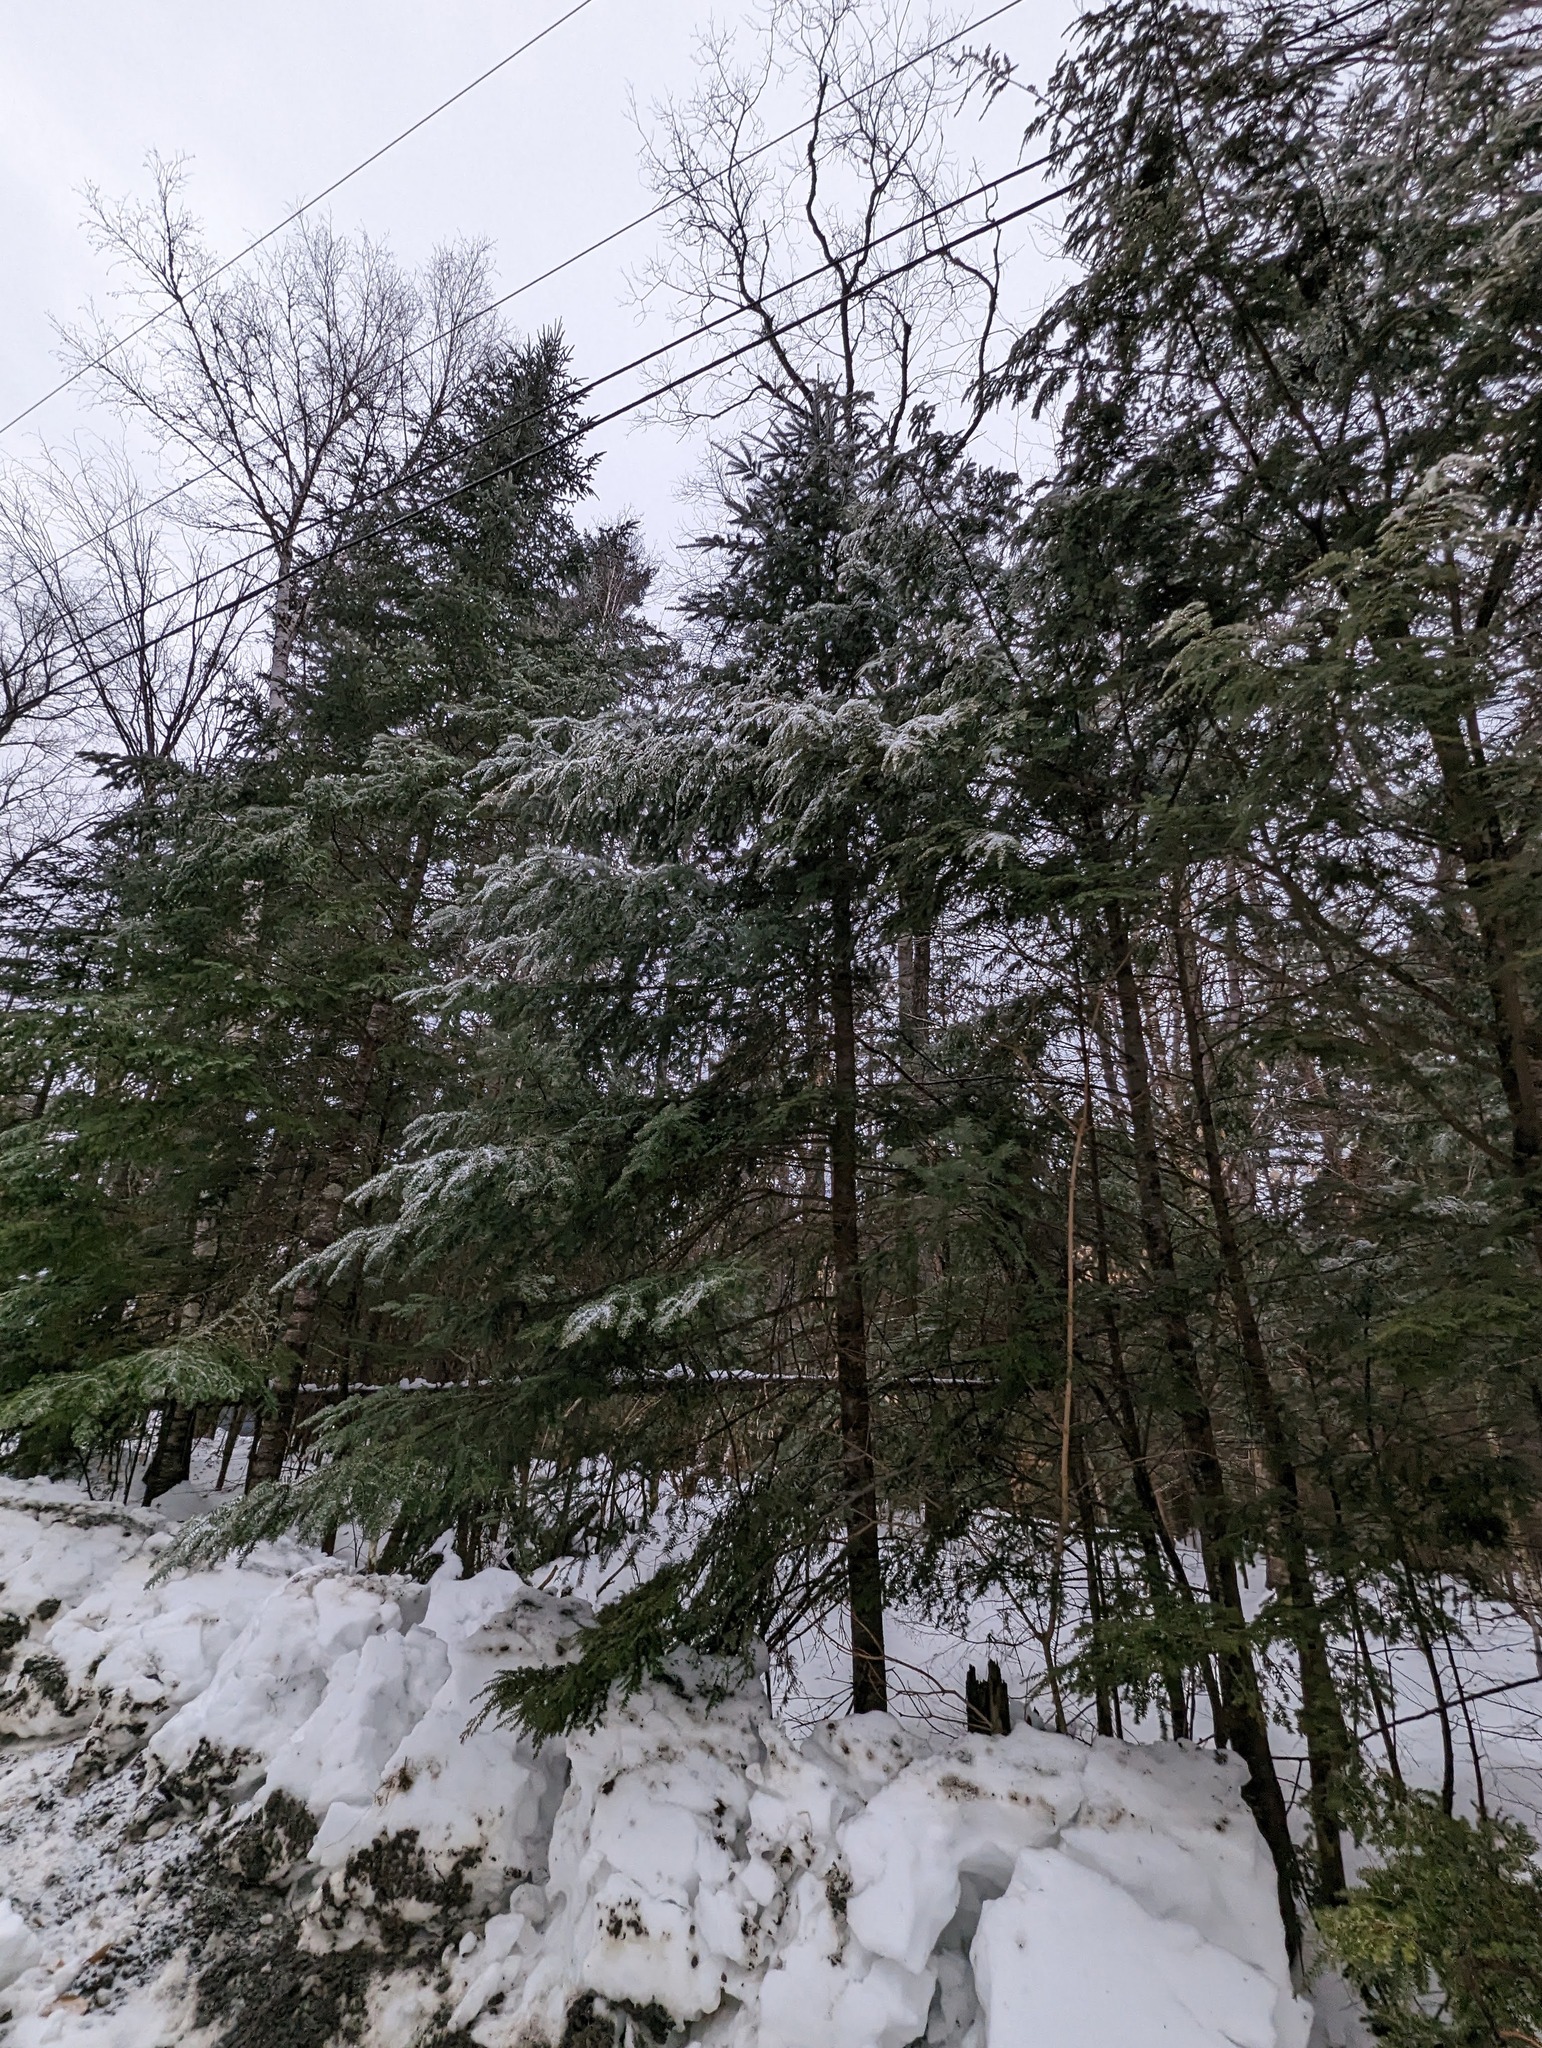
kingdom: Plantae
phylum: Tracheophyta
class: Pinopsida
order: Pinales
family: Pinaceae
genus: Abies
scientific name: Abies balsamea
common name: Balsam fir
